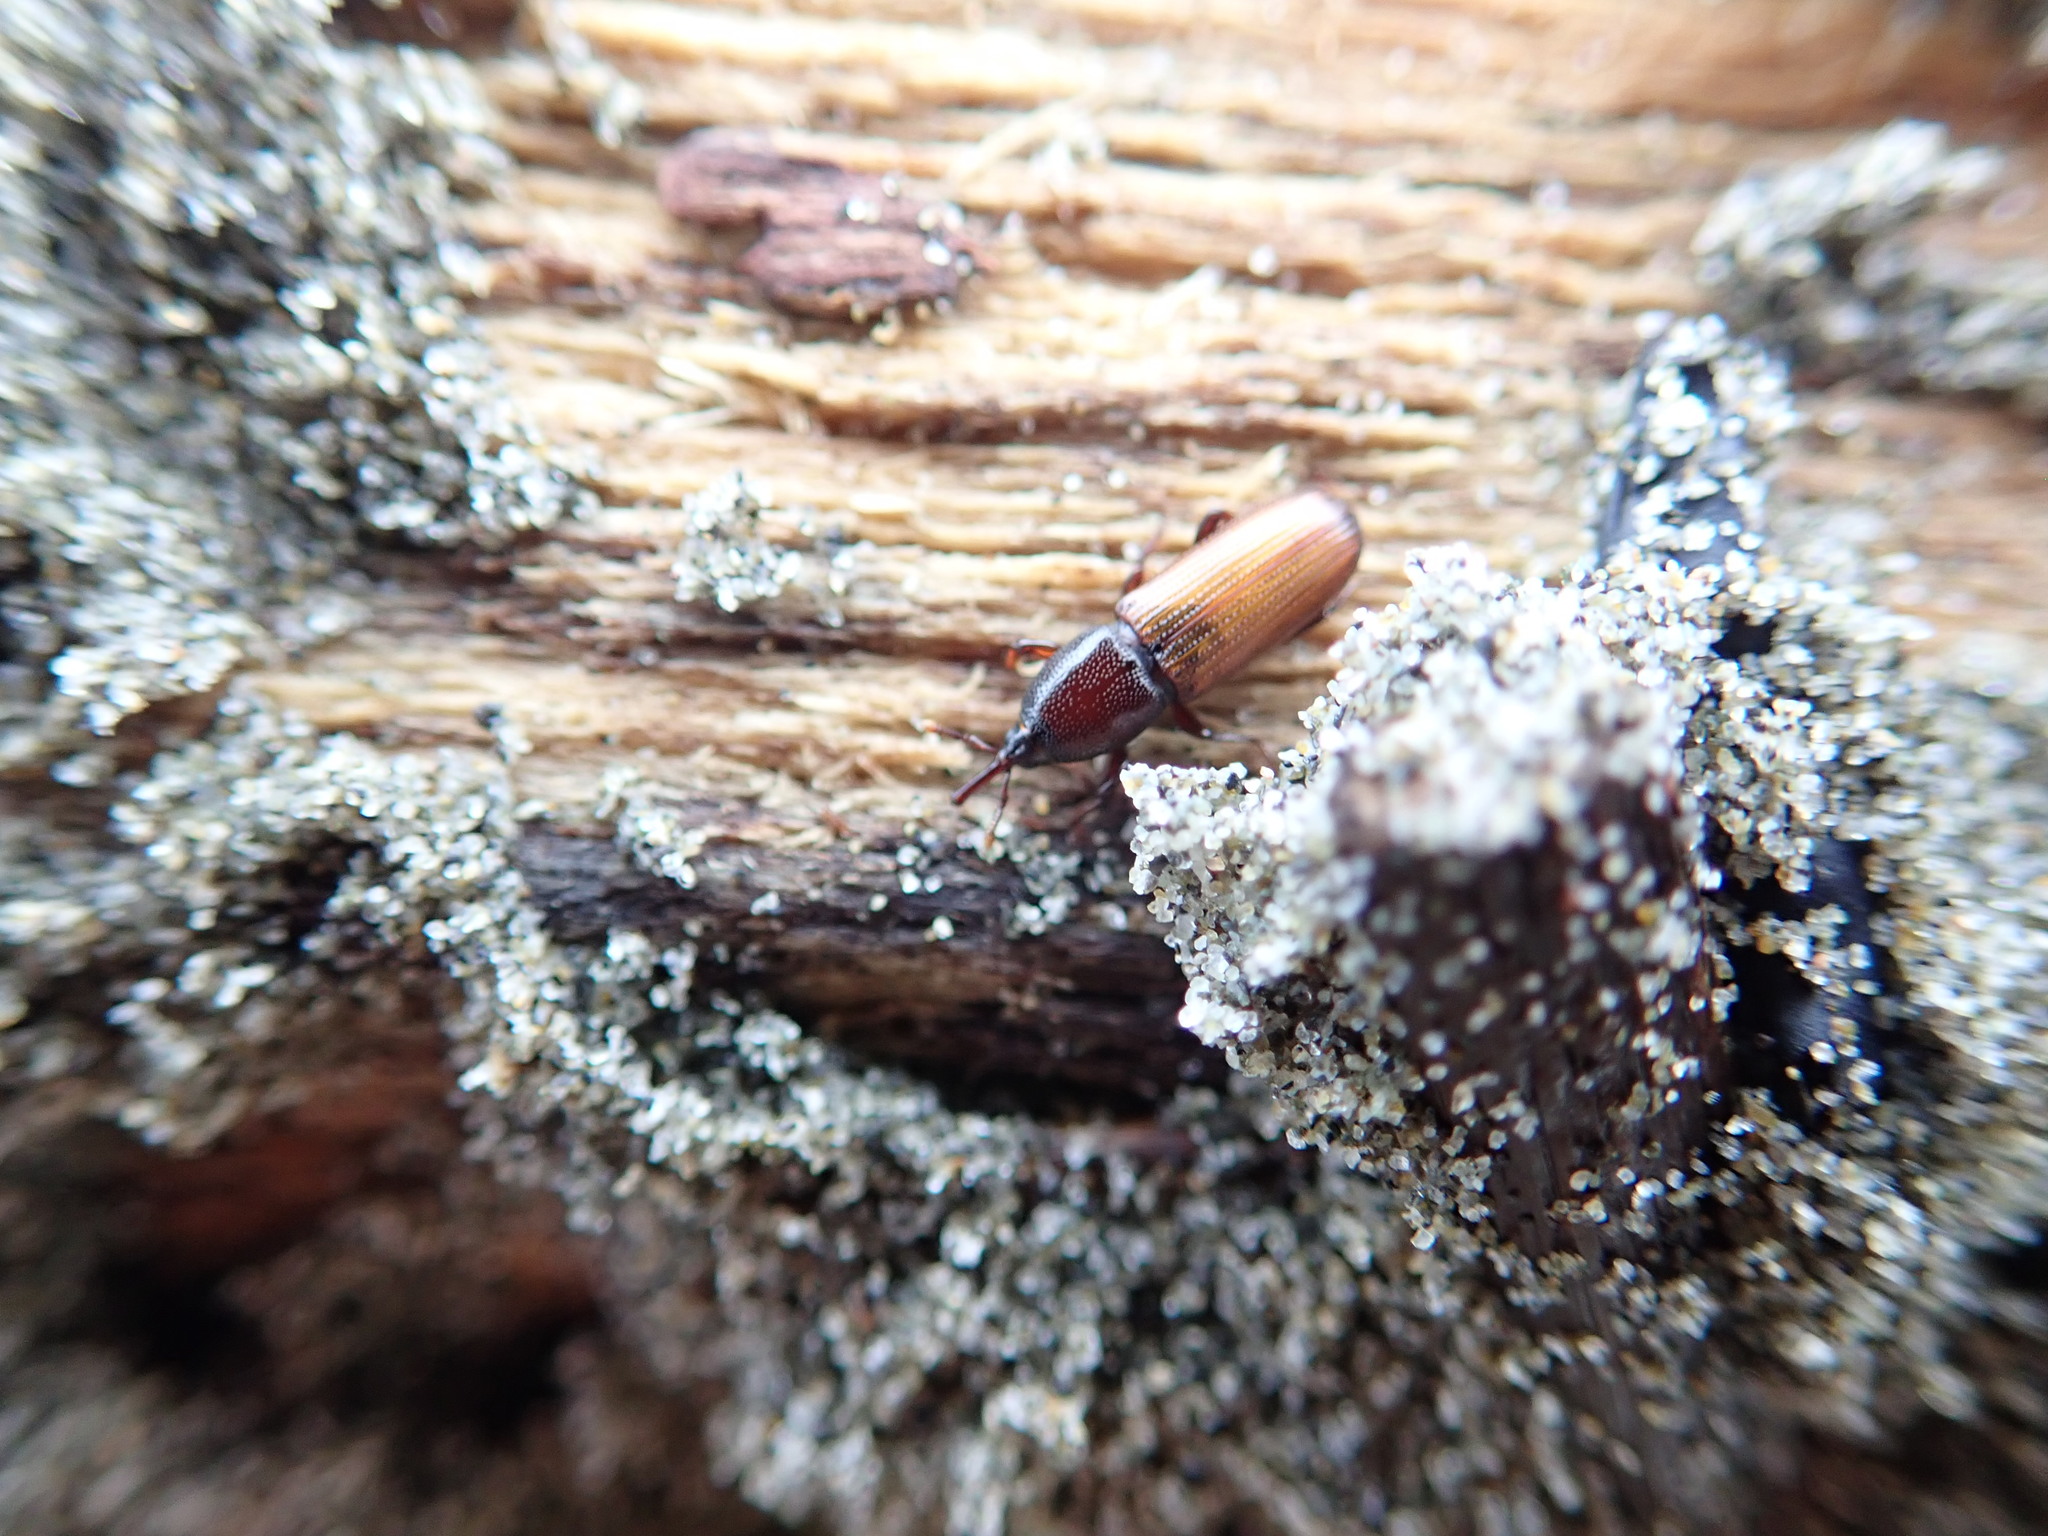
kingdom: Animalia
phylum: Arthropoda
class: Insecta
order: Coleoptera
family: Curculionidae
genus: Mesites
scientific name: Mesites pallidipennis
